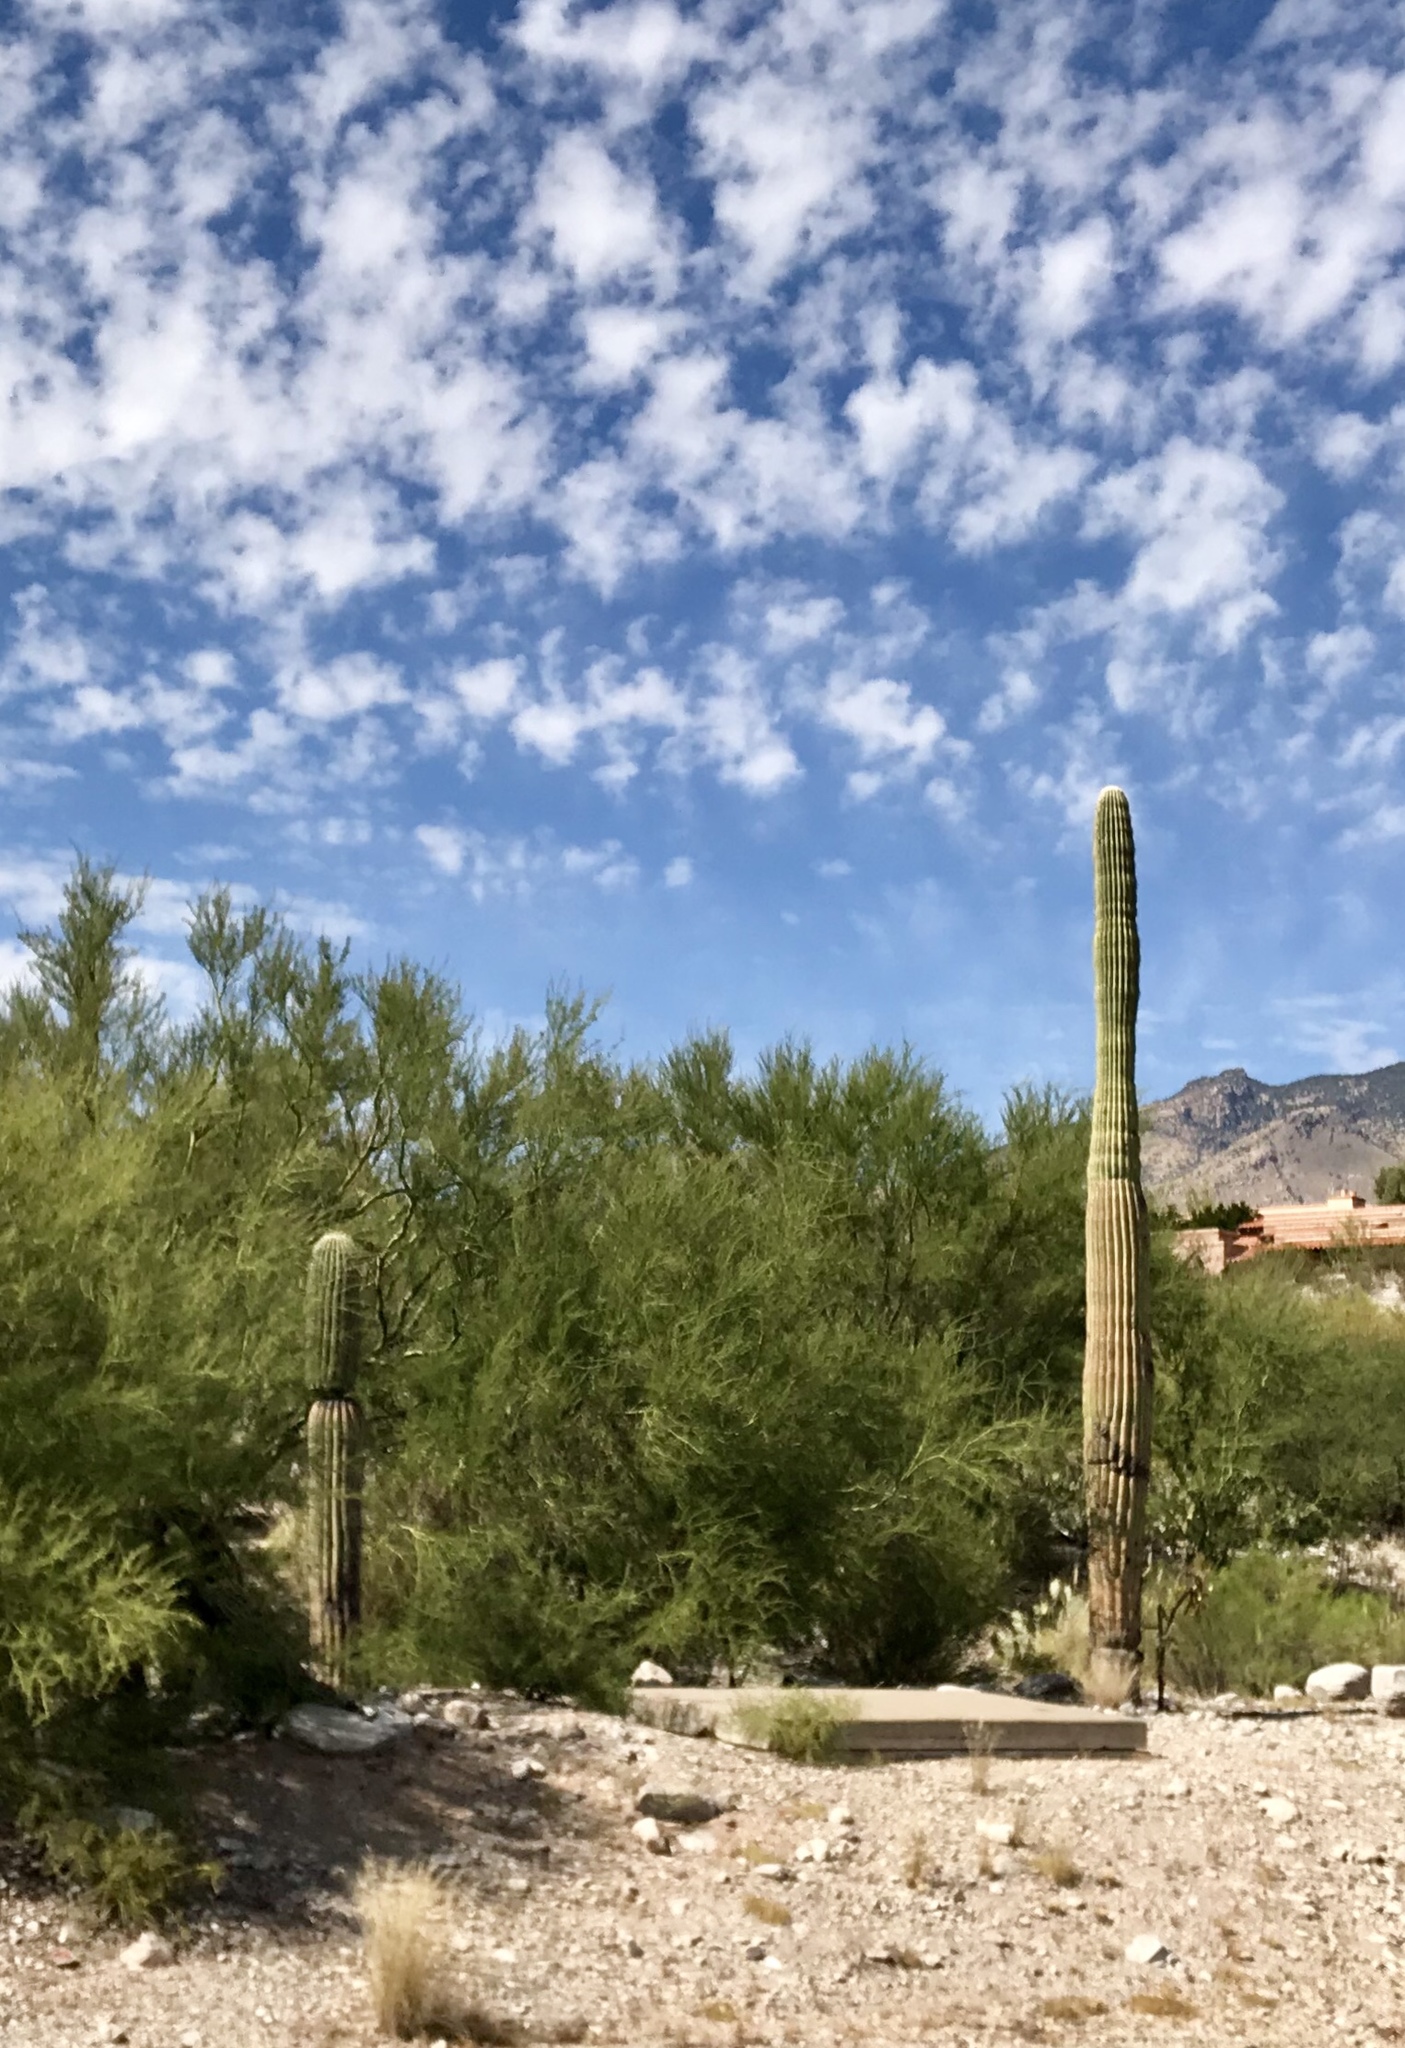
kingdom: Plantae
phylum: Tracheophyta
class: Magnoliopsida
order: Caryophyllales
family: Cactaceae
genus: Carnegiea
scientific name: Carnegiea gigantea
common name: Saguaro
